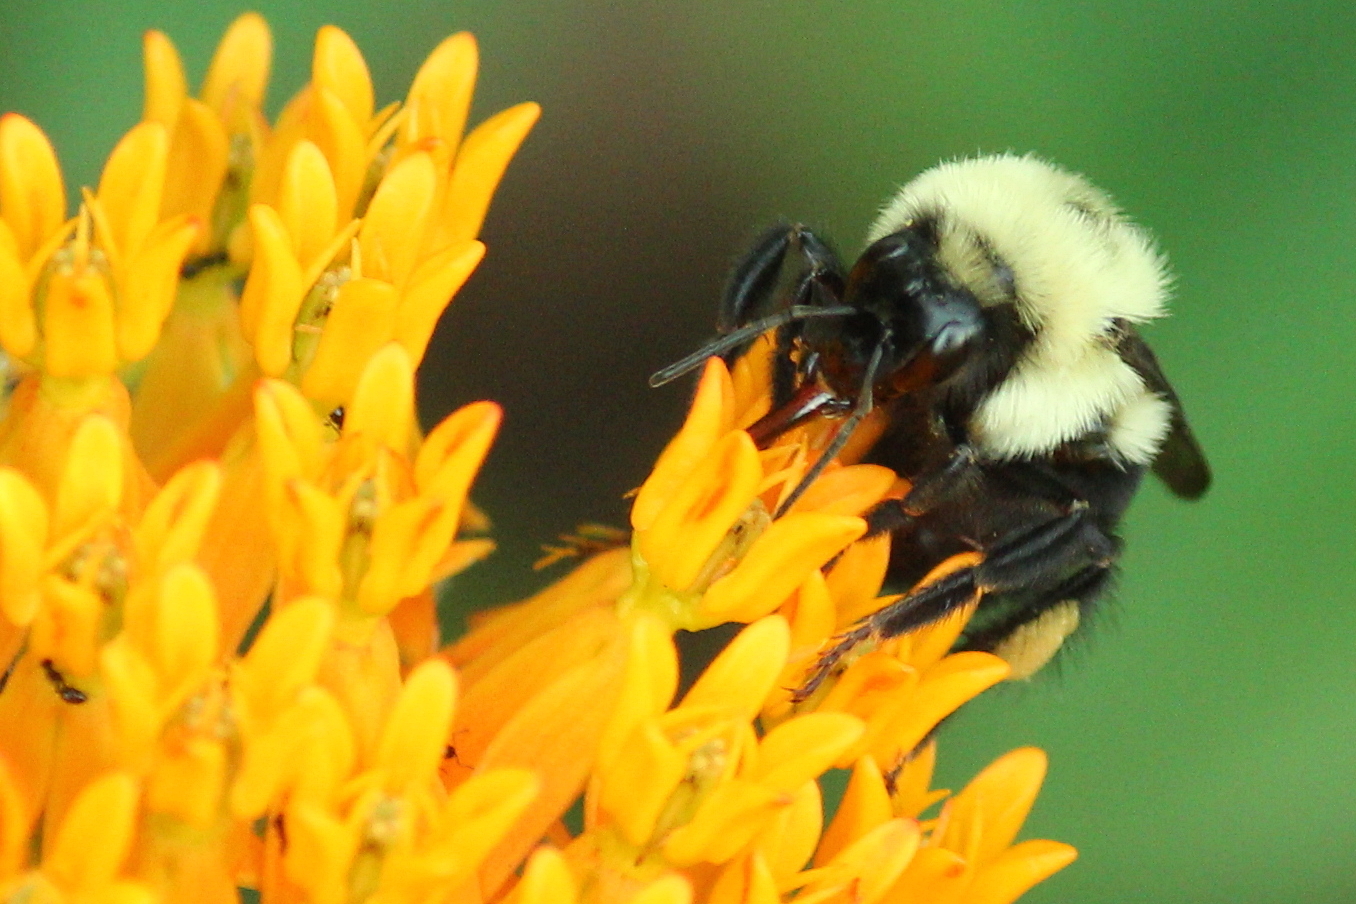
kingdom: Animalia
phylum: Arthropoda
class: Insecta
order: Hymenoptera
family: Apidae
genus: Bombus
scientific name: Bombus bimaculatus
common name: Two-spotted bumble bee
